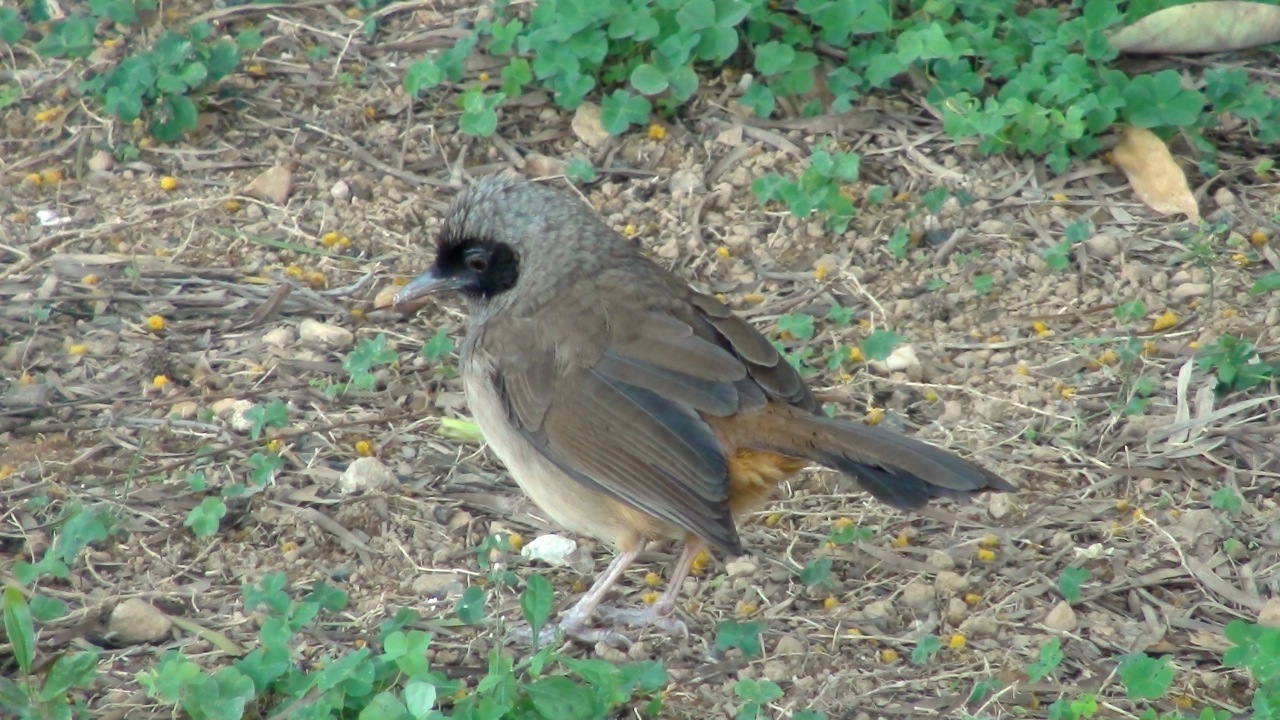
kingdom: Animalia
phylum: Chordata
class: Aves
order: Passeriformes
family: Leiothrichidae
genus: Garrulax
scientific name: Garrulax perspicillatus
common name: Masked laughingthrush
